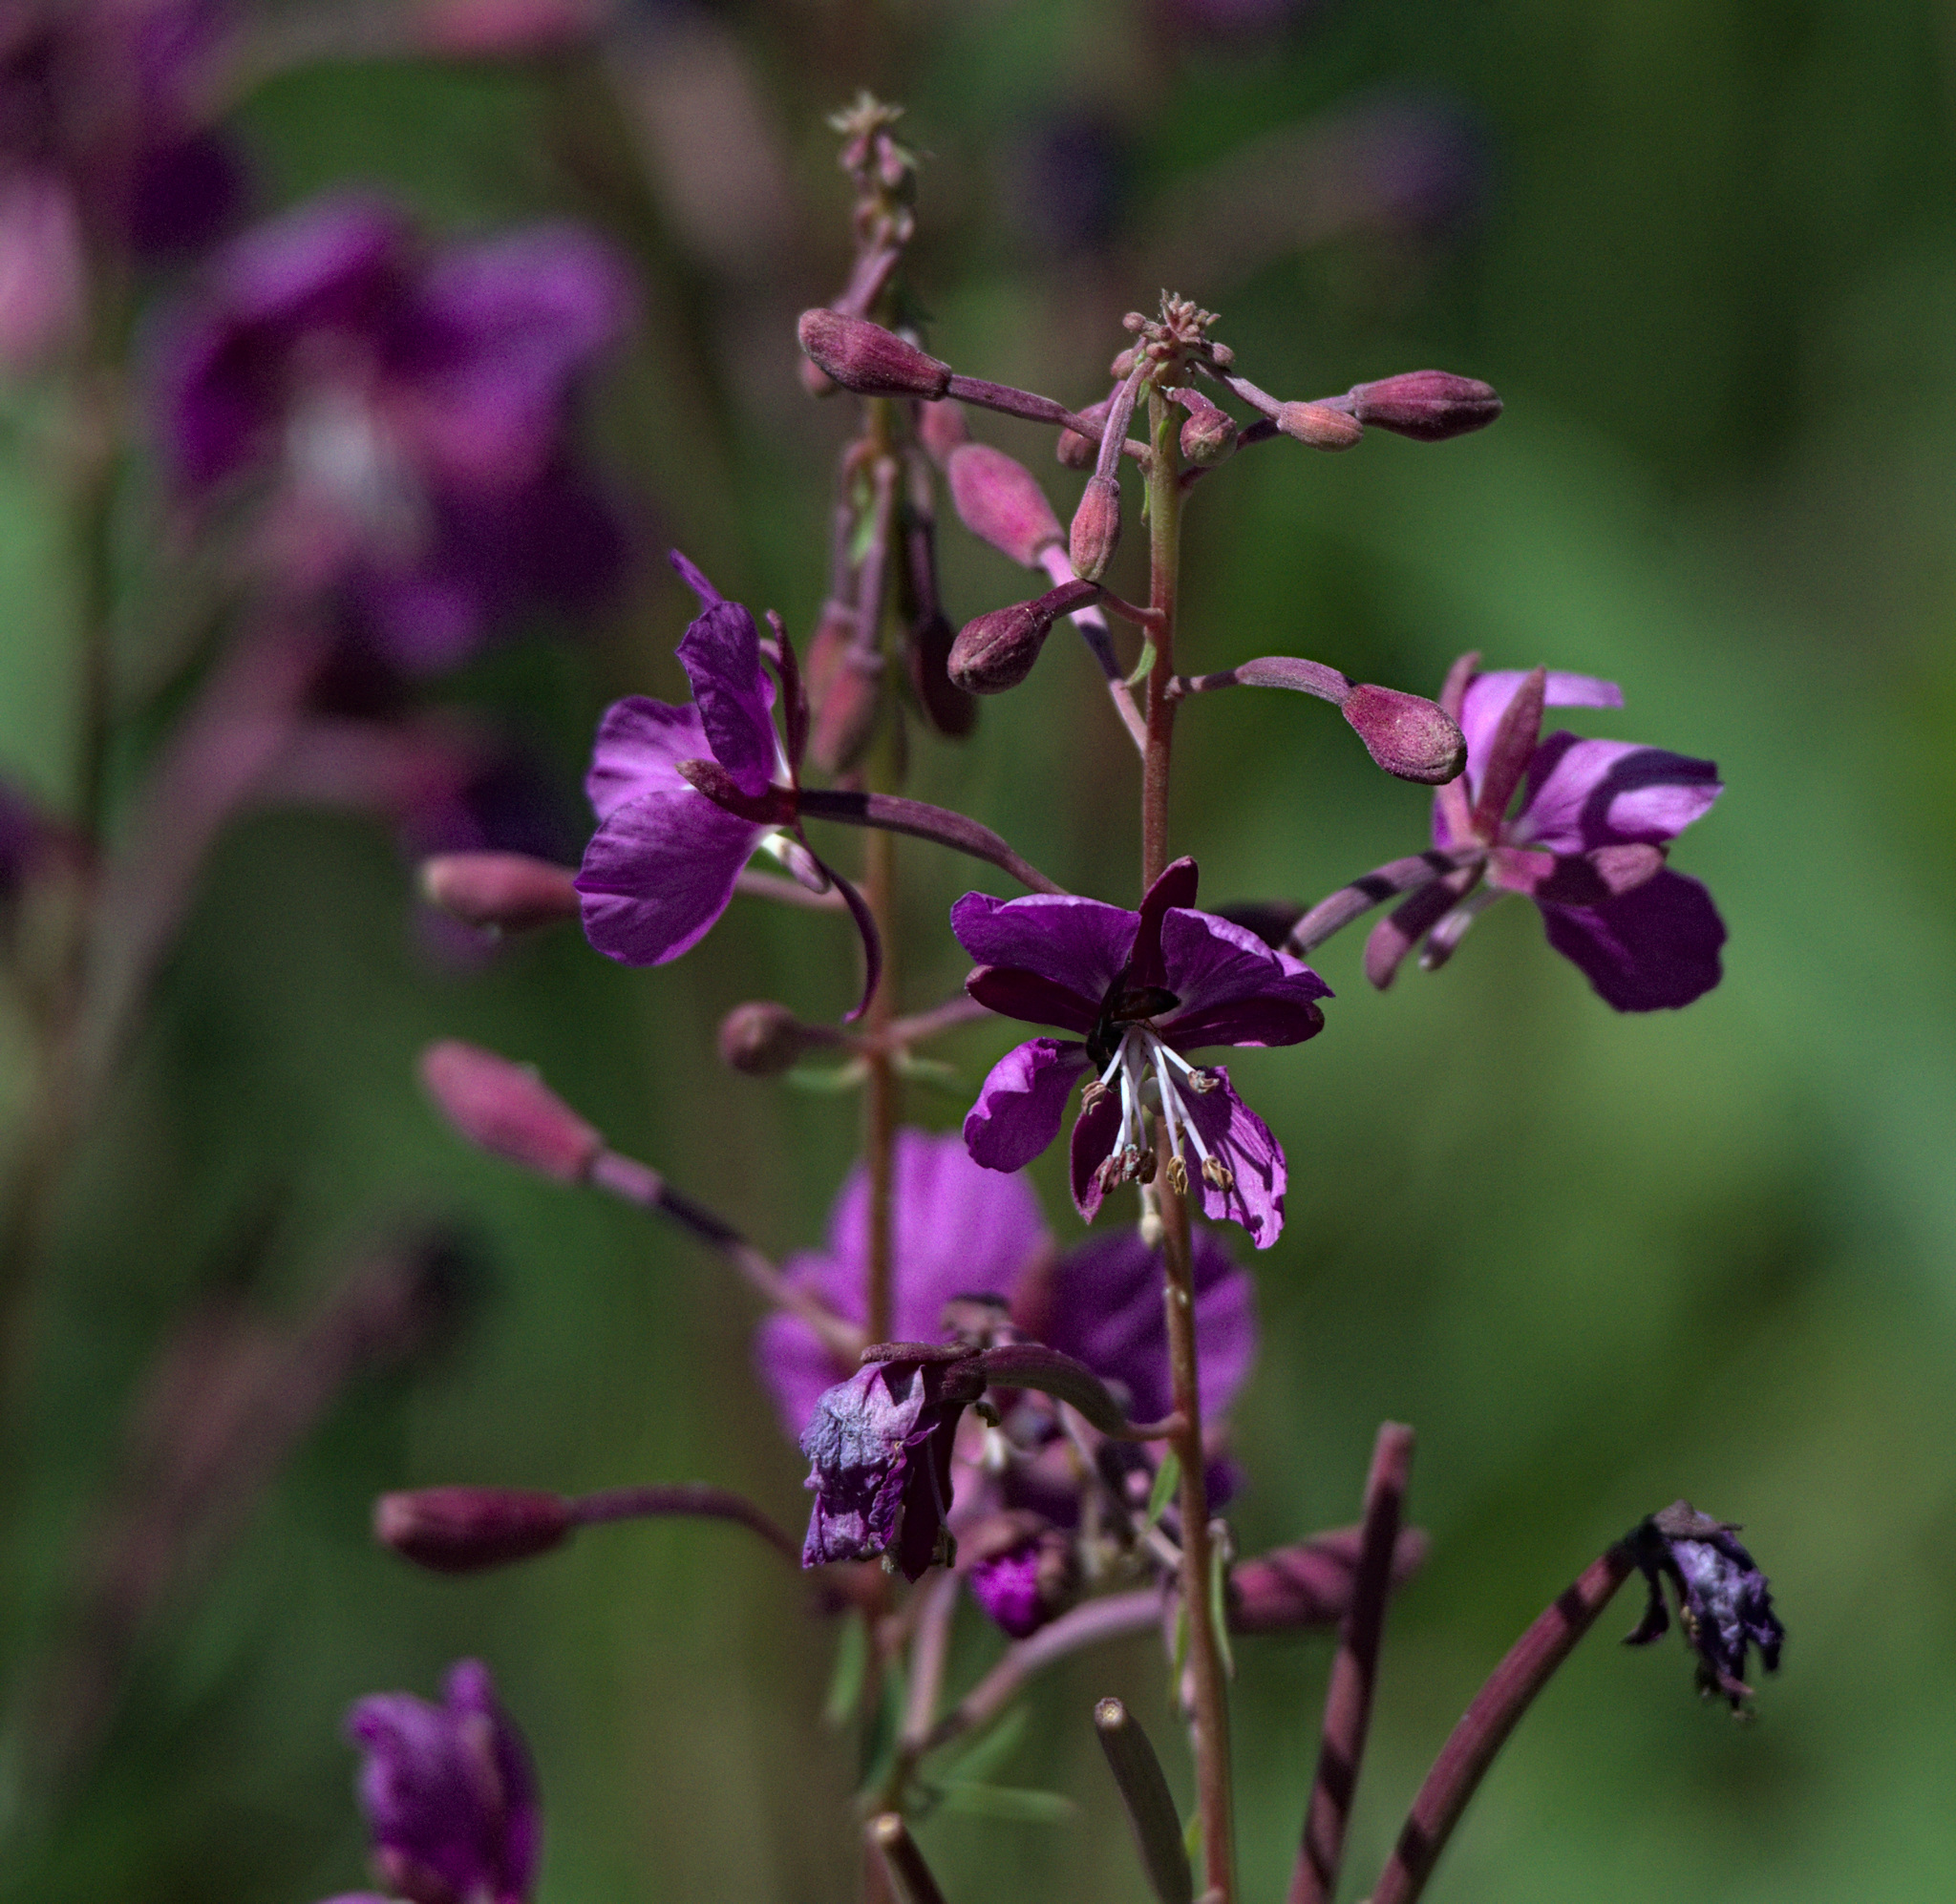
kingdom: Plantae
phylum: Tracheophyta
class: Magnoliopsida
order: Myrtales
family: Onagraceae
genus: Chamaenerion
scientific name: Chamaenerion angustifolium
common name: Fireweed
